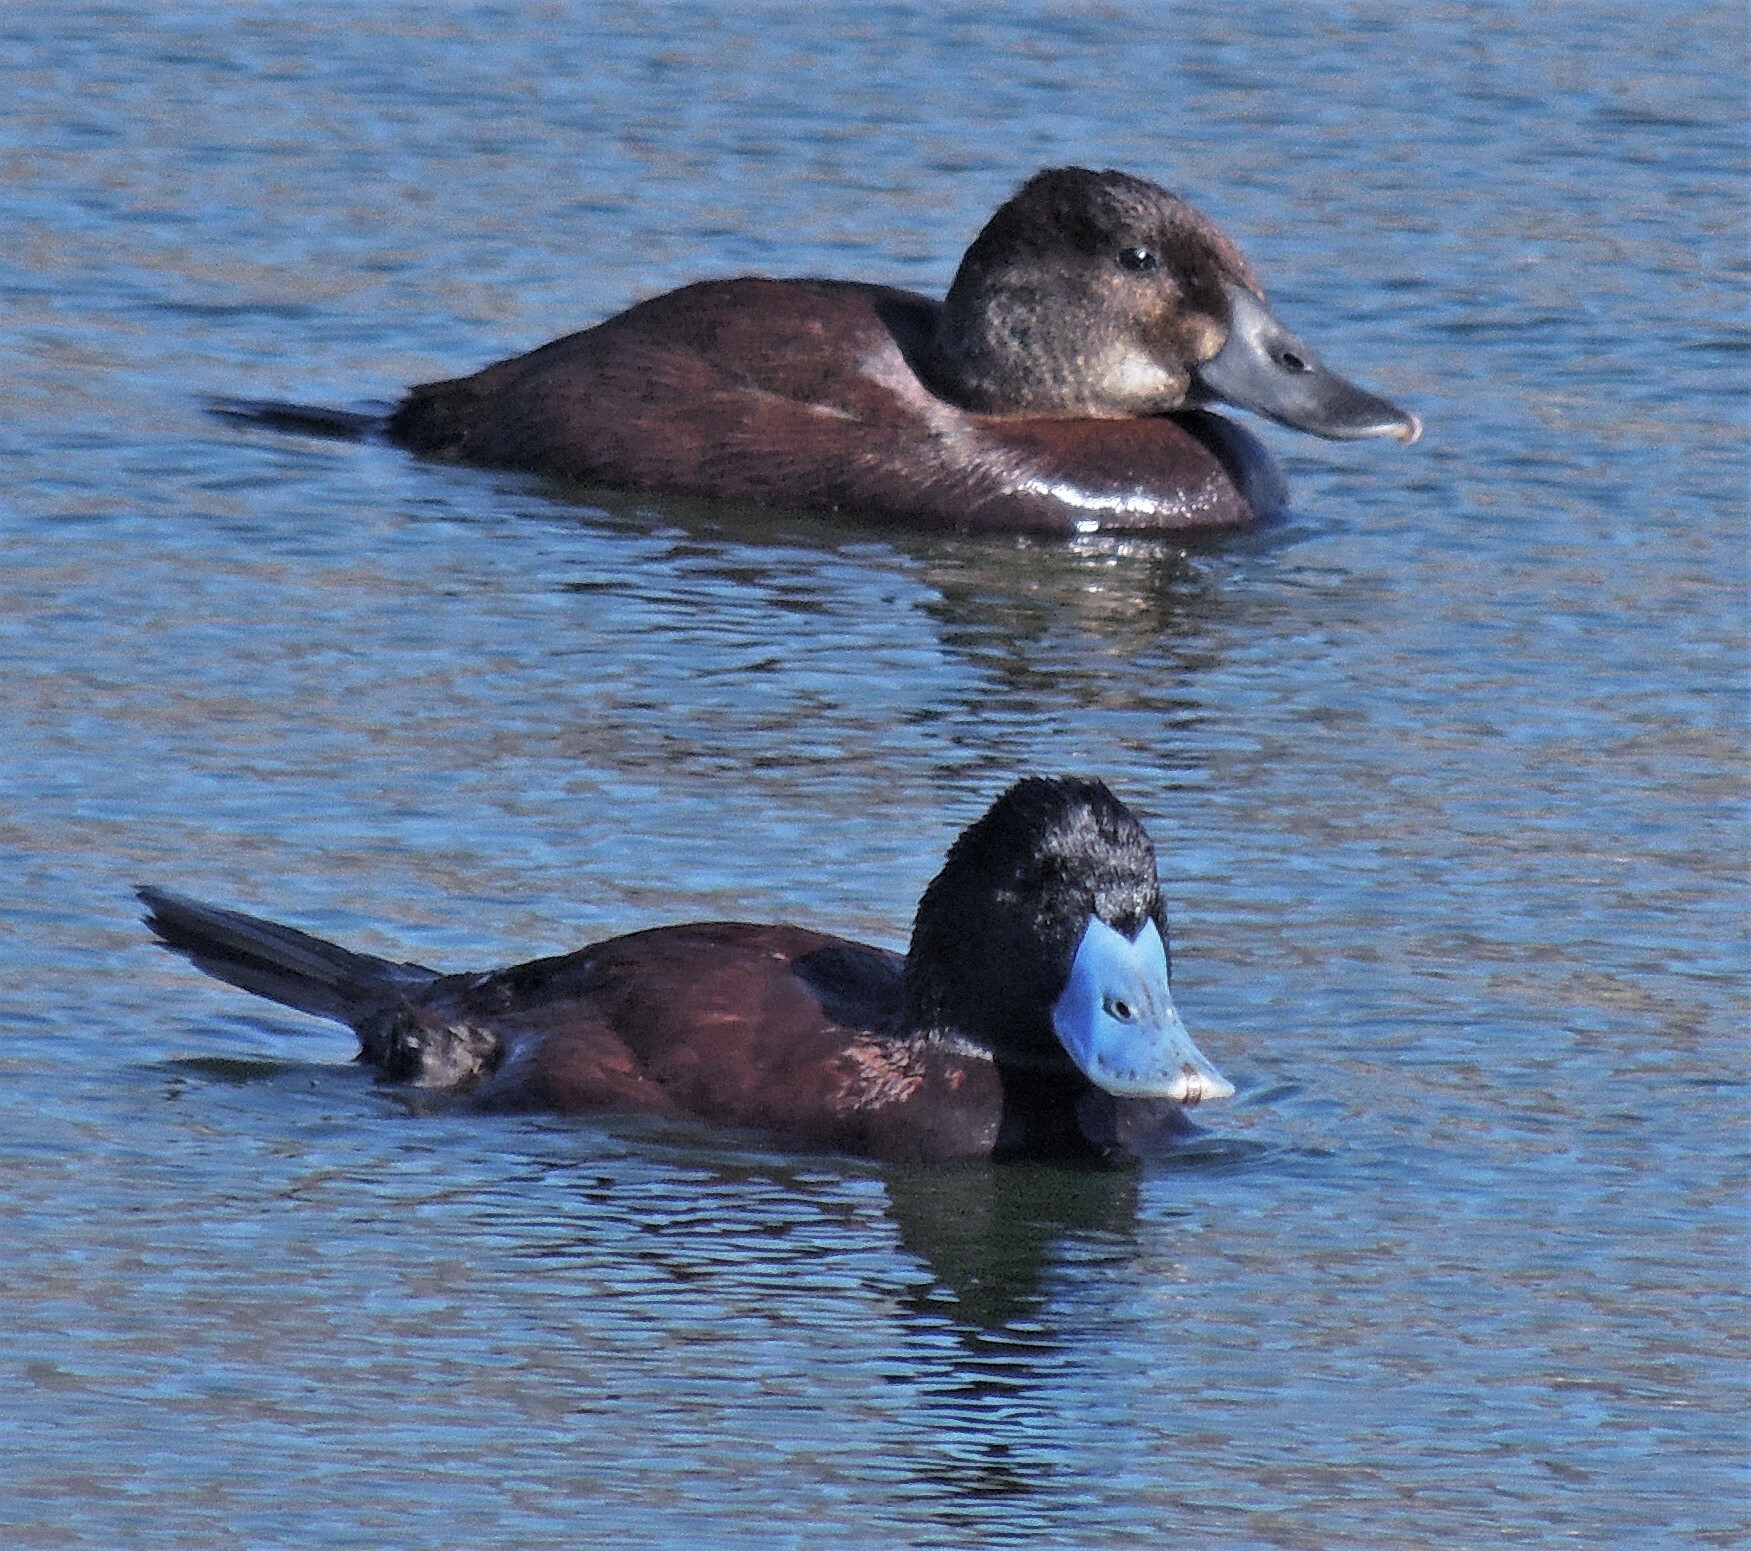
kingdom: Animalia
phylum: Chordata
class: Aves
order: Anseriformes
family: Anatidae
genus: Oxyura
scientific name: Oxyura ferruginea
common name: Andean duck
